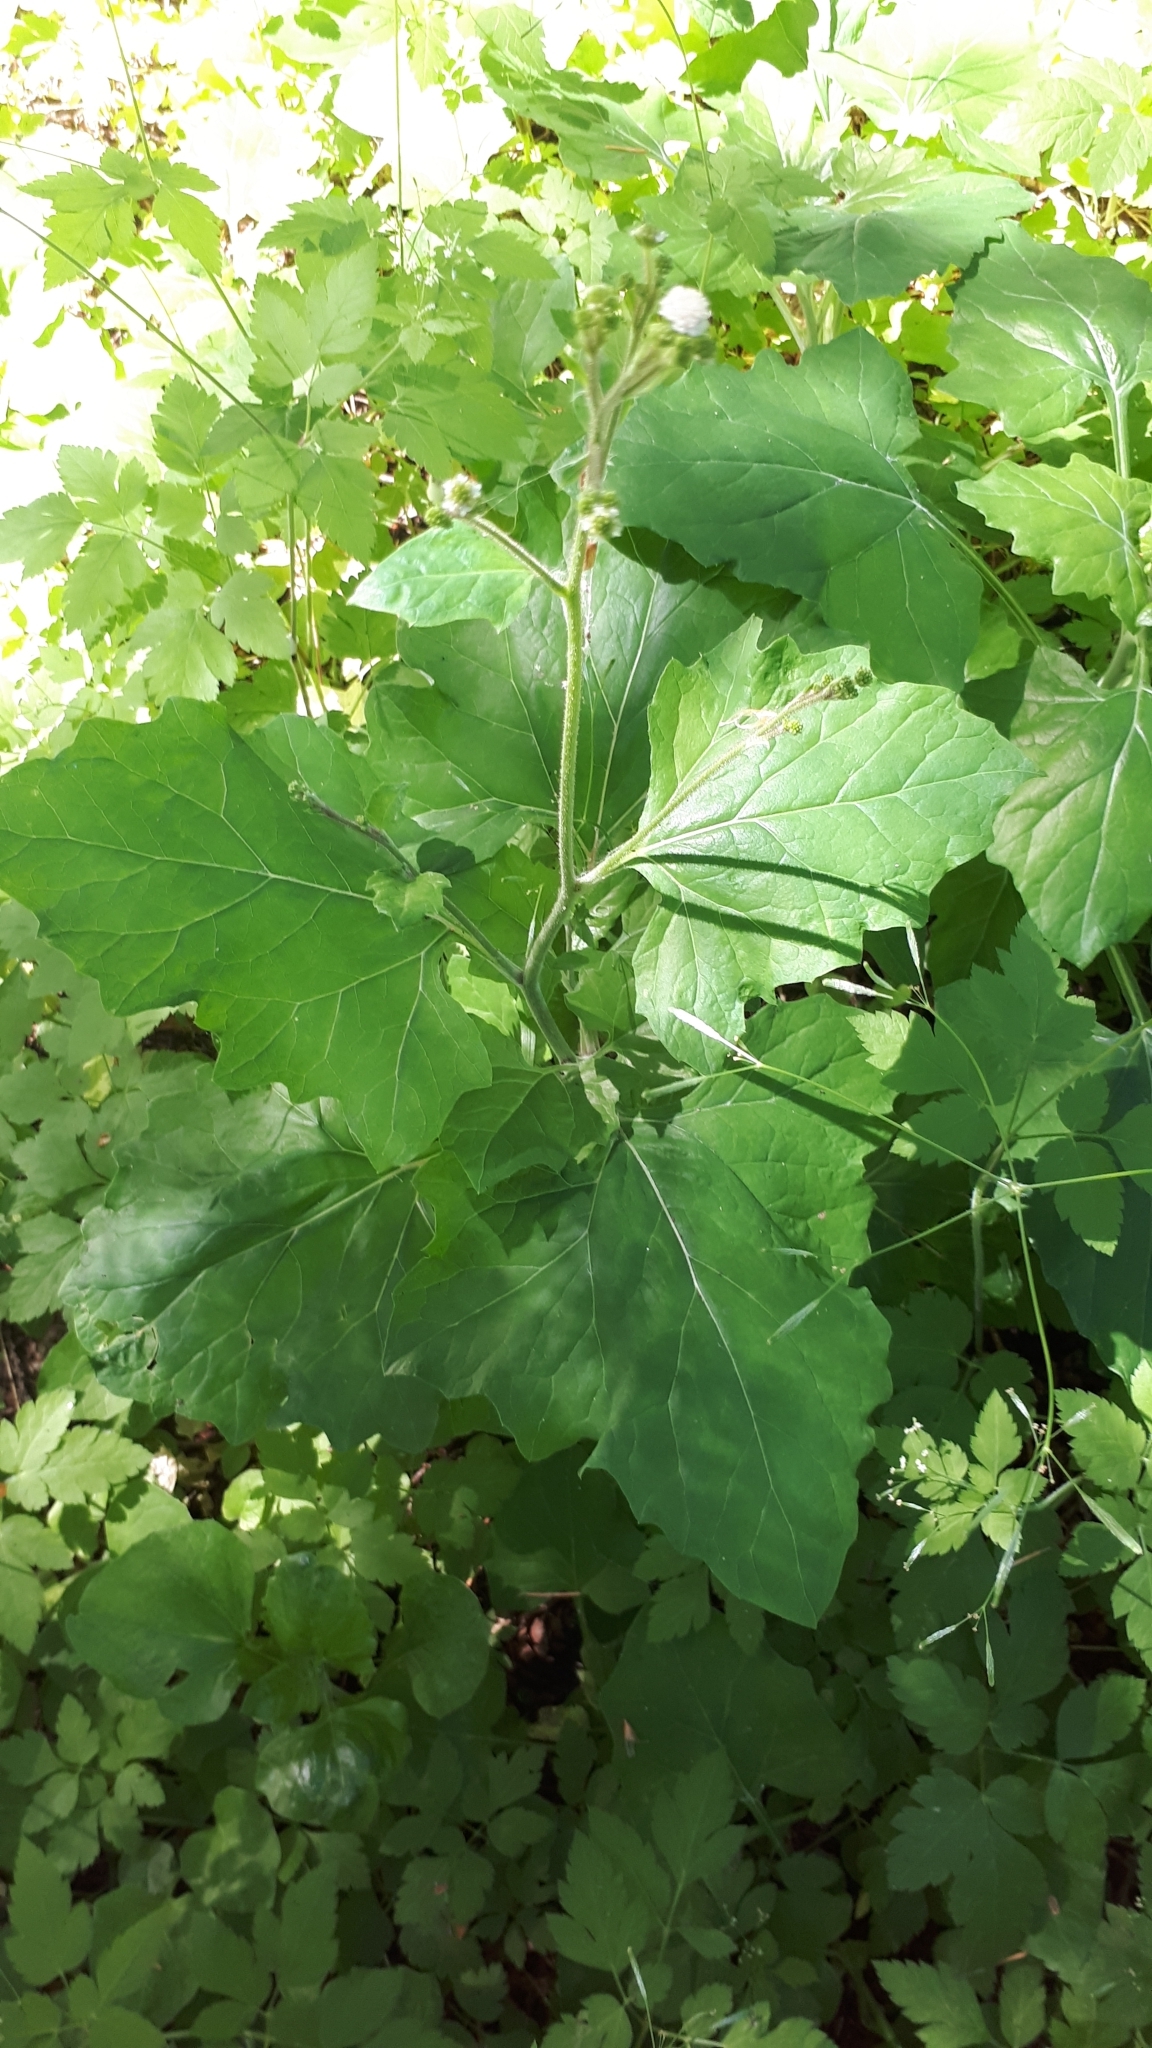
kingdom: Plantae
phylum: Tracheophyta
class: Magnoliopsida
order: Asterales
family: Asteraceae
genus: Adenocaulon
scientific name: Adenocaulon bicolor
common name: Trailplant
